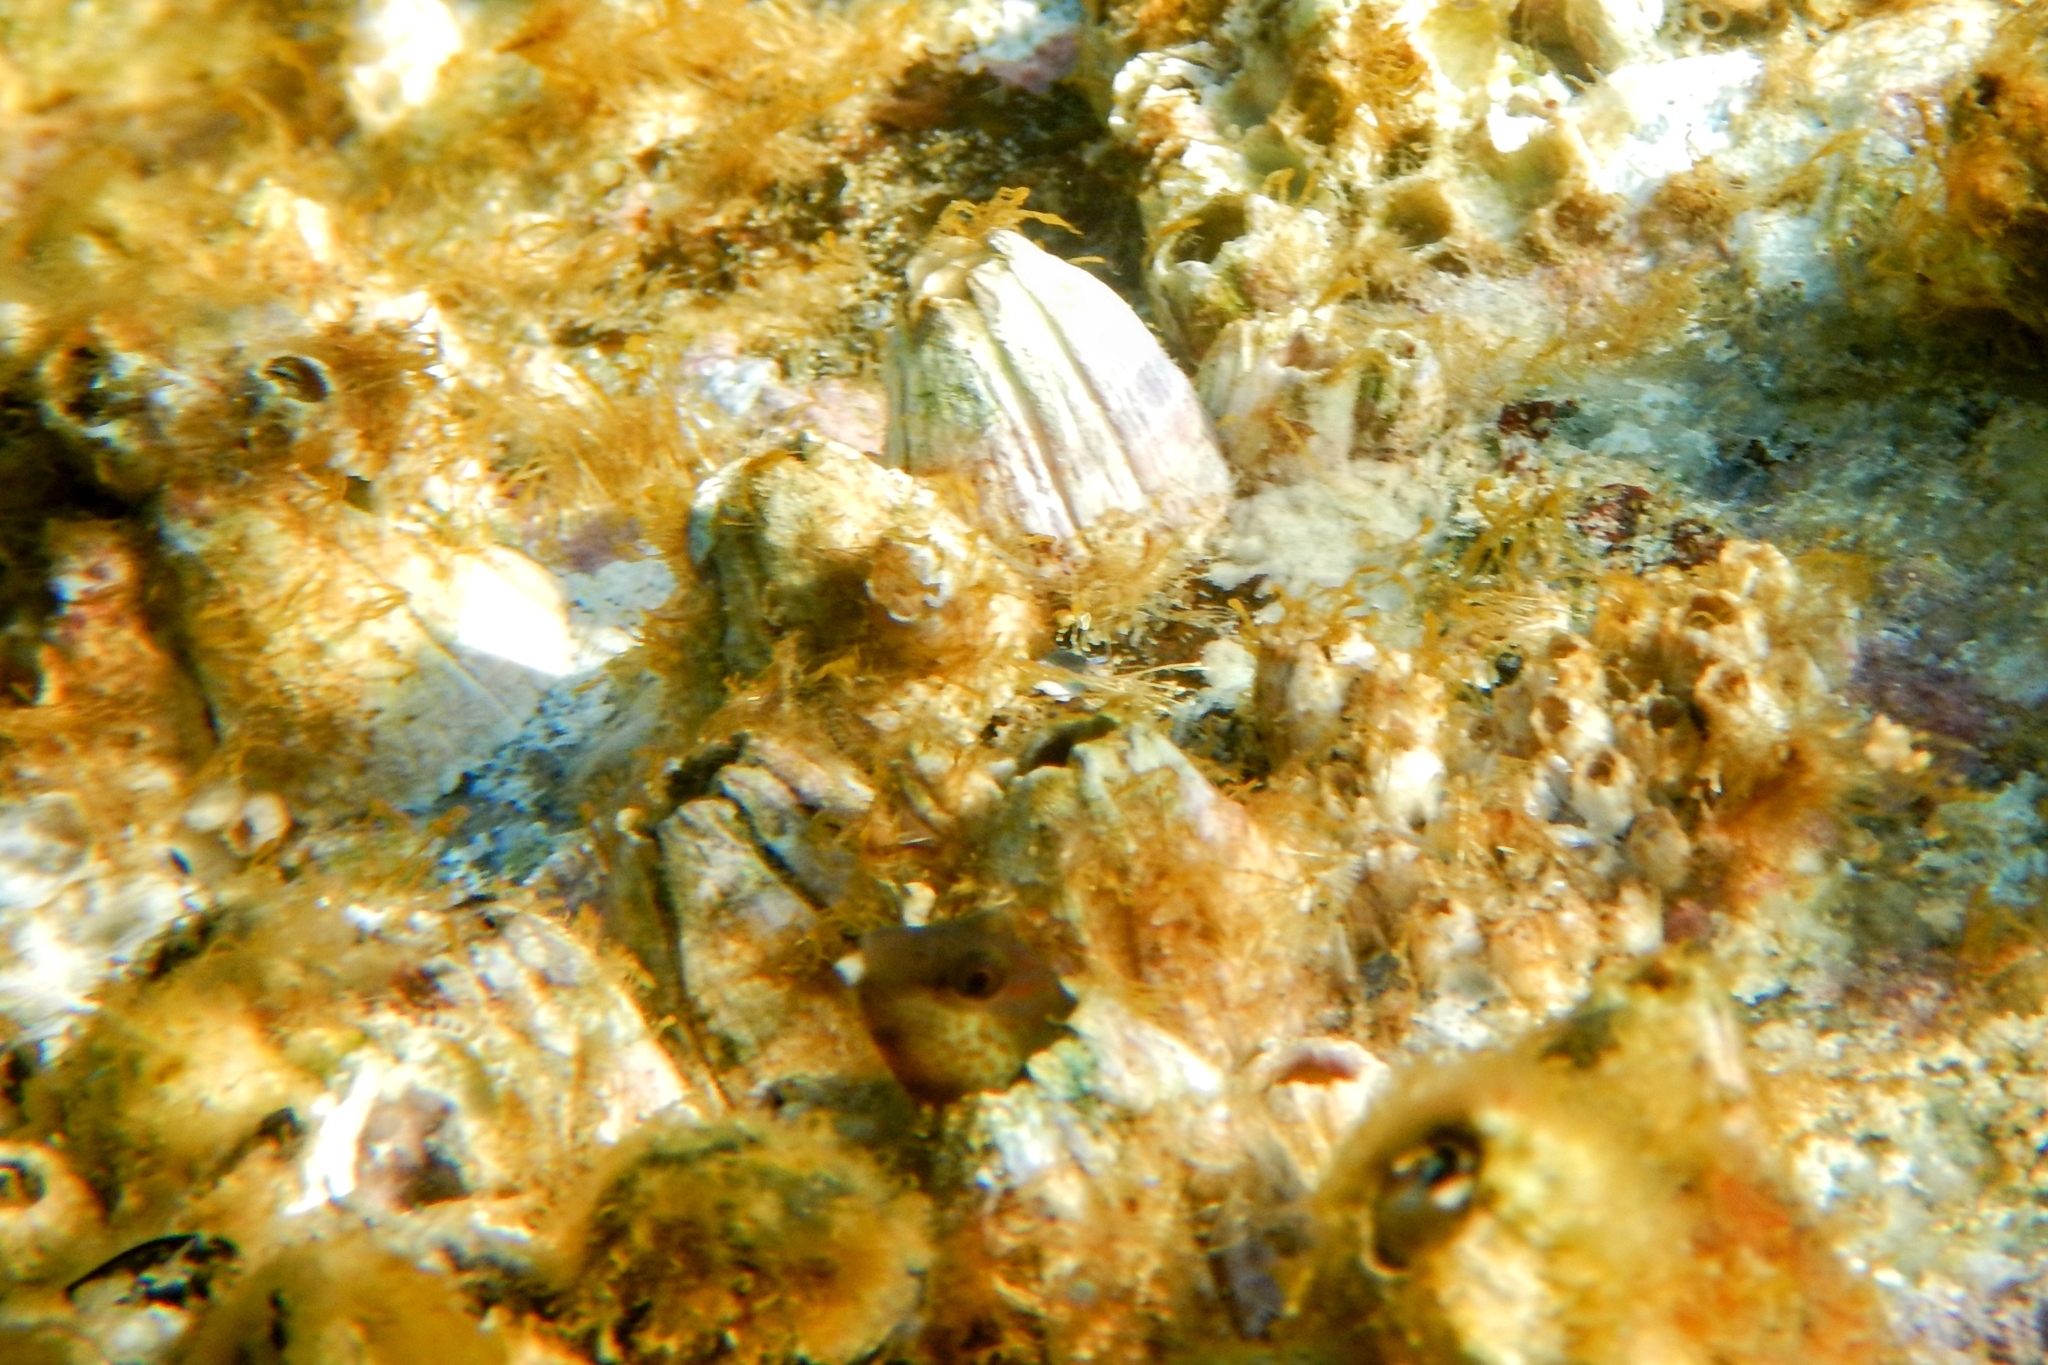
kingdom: Animalia
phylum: Chordata
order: Perciformes
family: Blenniidae
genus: Microlipophrys
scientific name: Microlipophrys canevae
